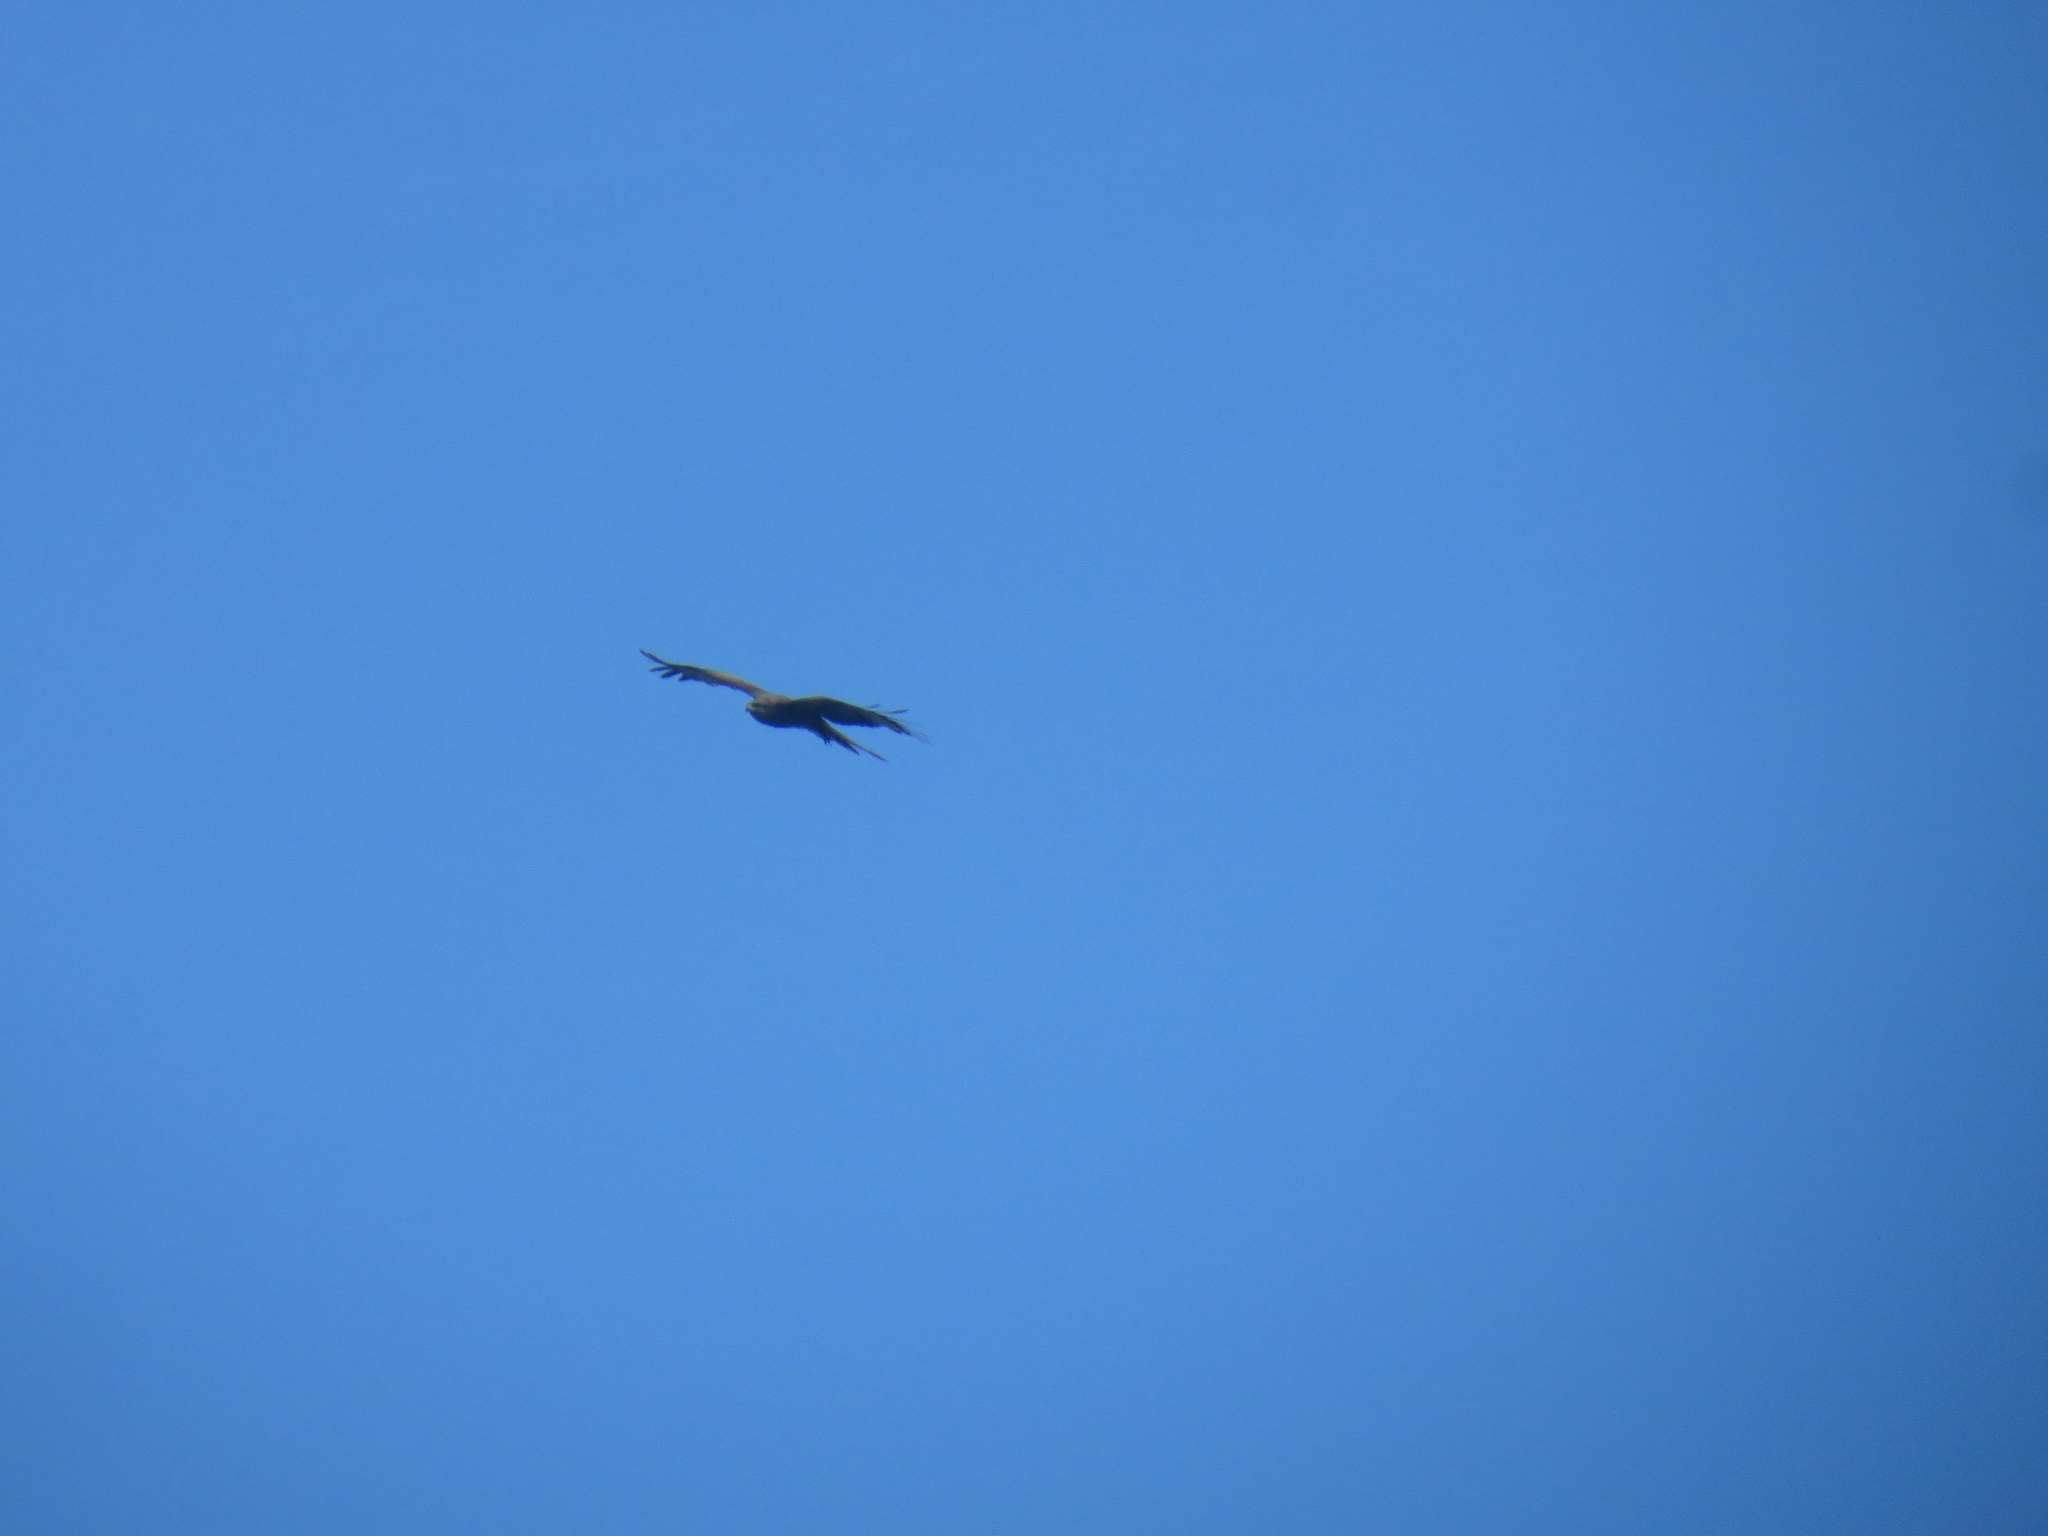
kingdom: Animalia
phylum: Chordata
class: Aves
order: Accipitriformes
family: Accipitridae
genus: Milvus
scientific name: Milvus migrans
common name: Black kite
